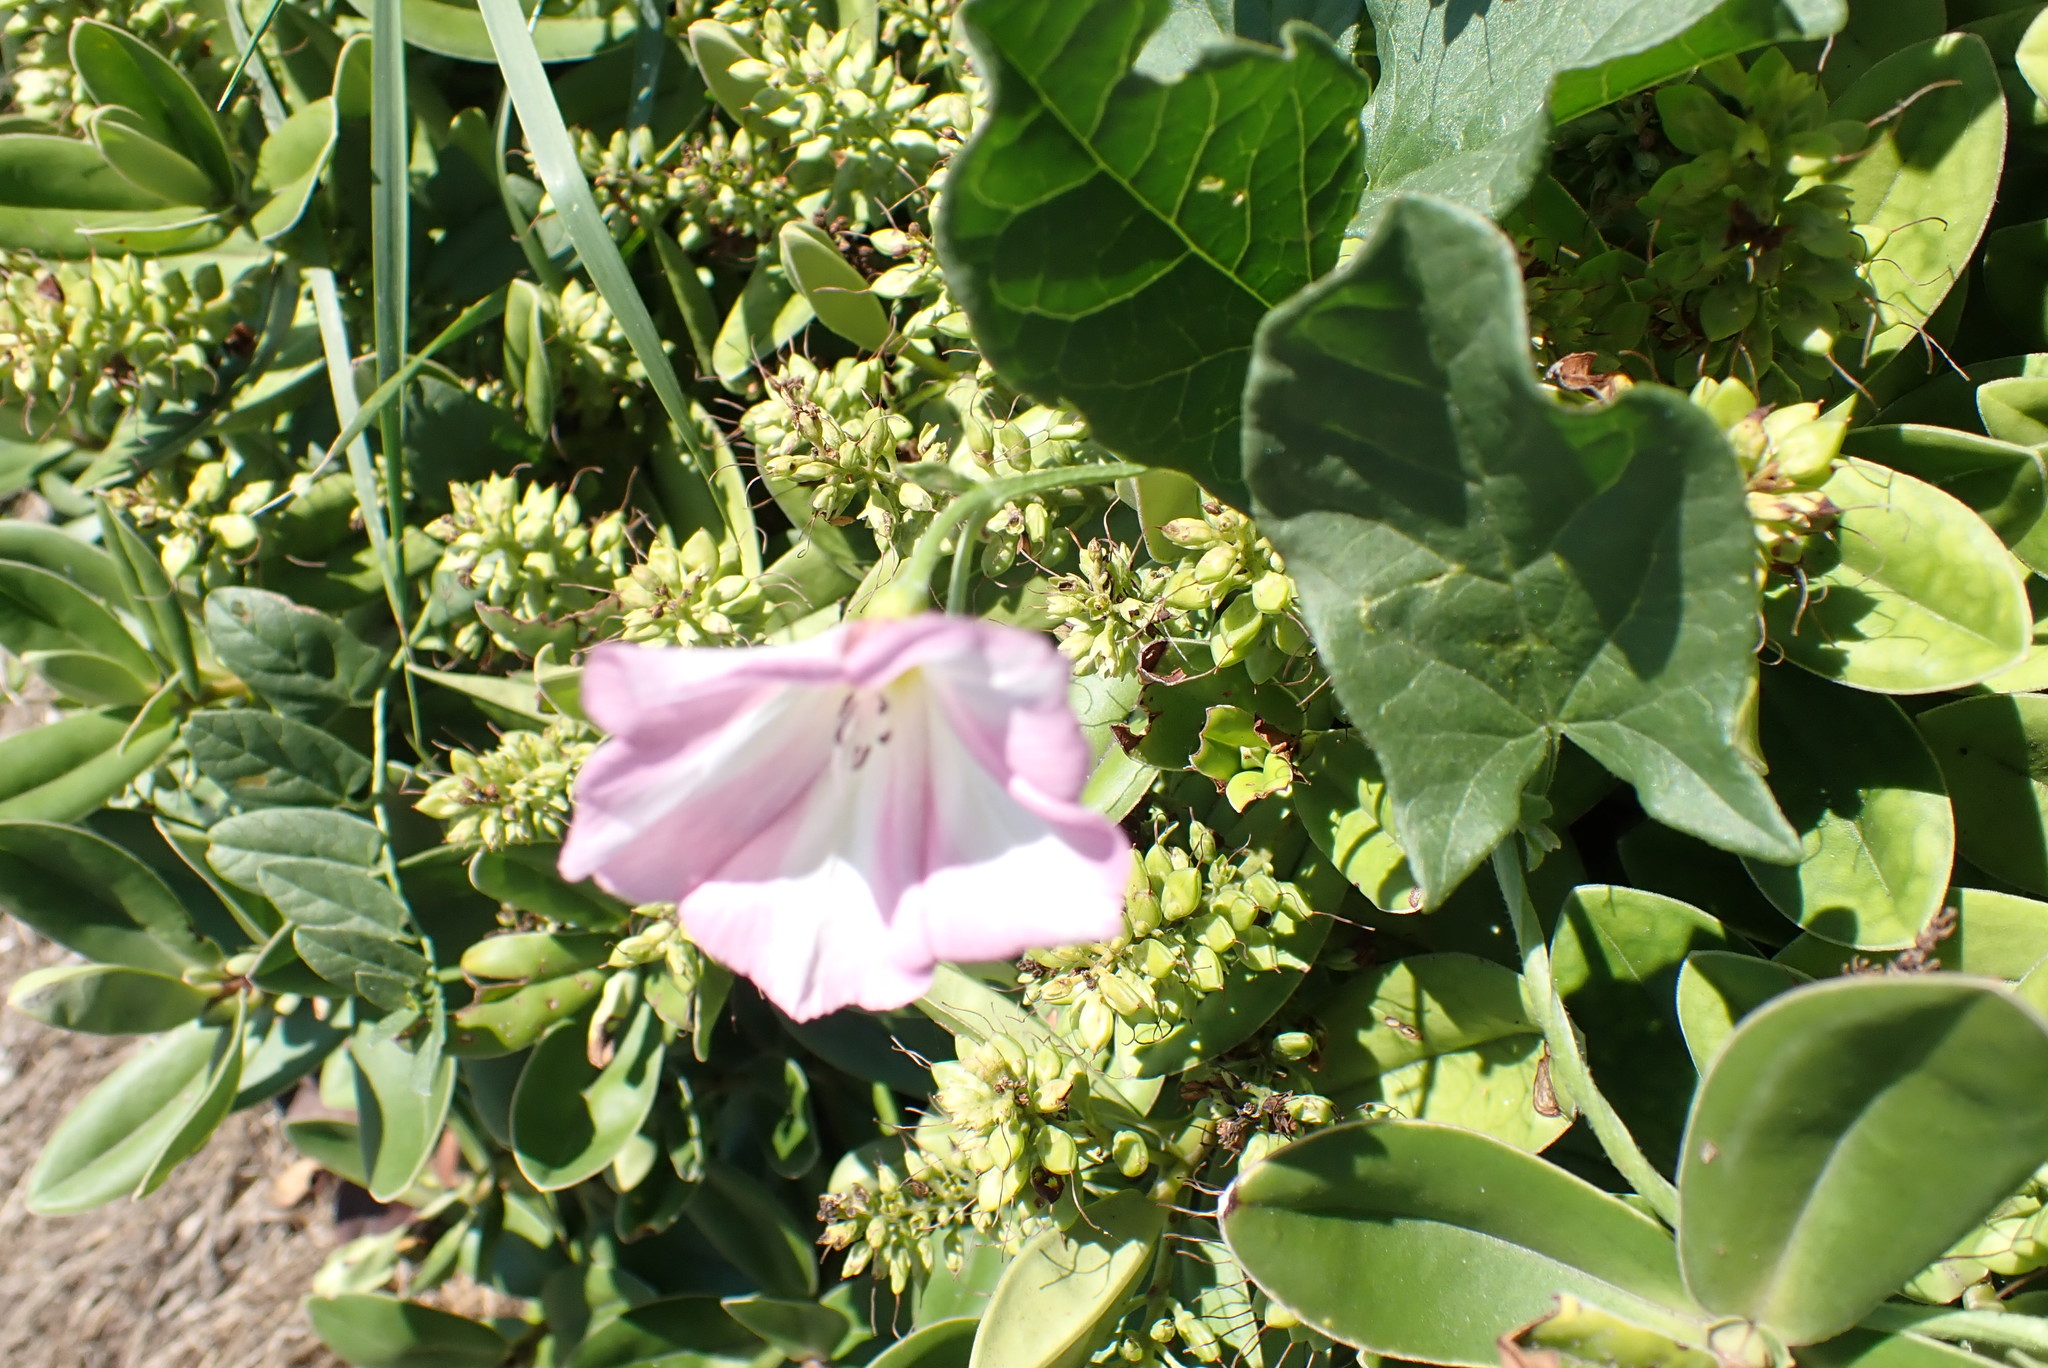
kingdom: Plantae
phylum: Tracheophyta
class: Magnoliopsida
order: Solanales
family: Convolvulaceae
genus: Convolvulus
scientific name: Convolvulus arvensis
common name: Field bindweed
